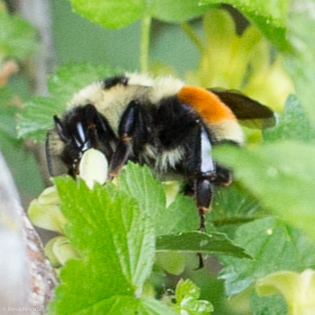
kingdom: Animalia
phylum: Arthropoda
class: Insecta
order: Hymenoptera
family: Apidae
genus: Bombus
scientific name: Bombus ternarius
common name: Tri-colored bumble bee
